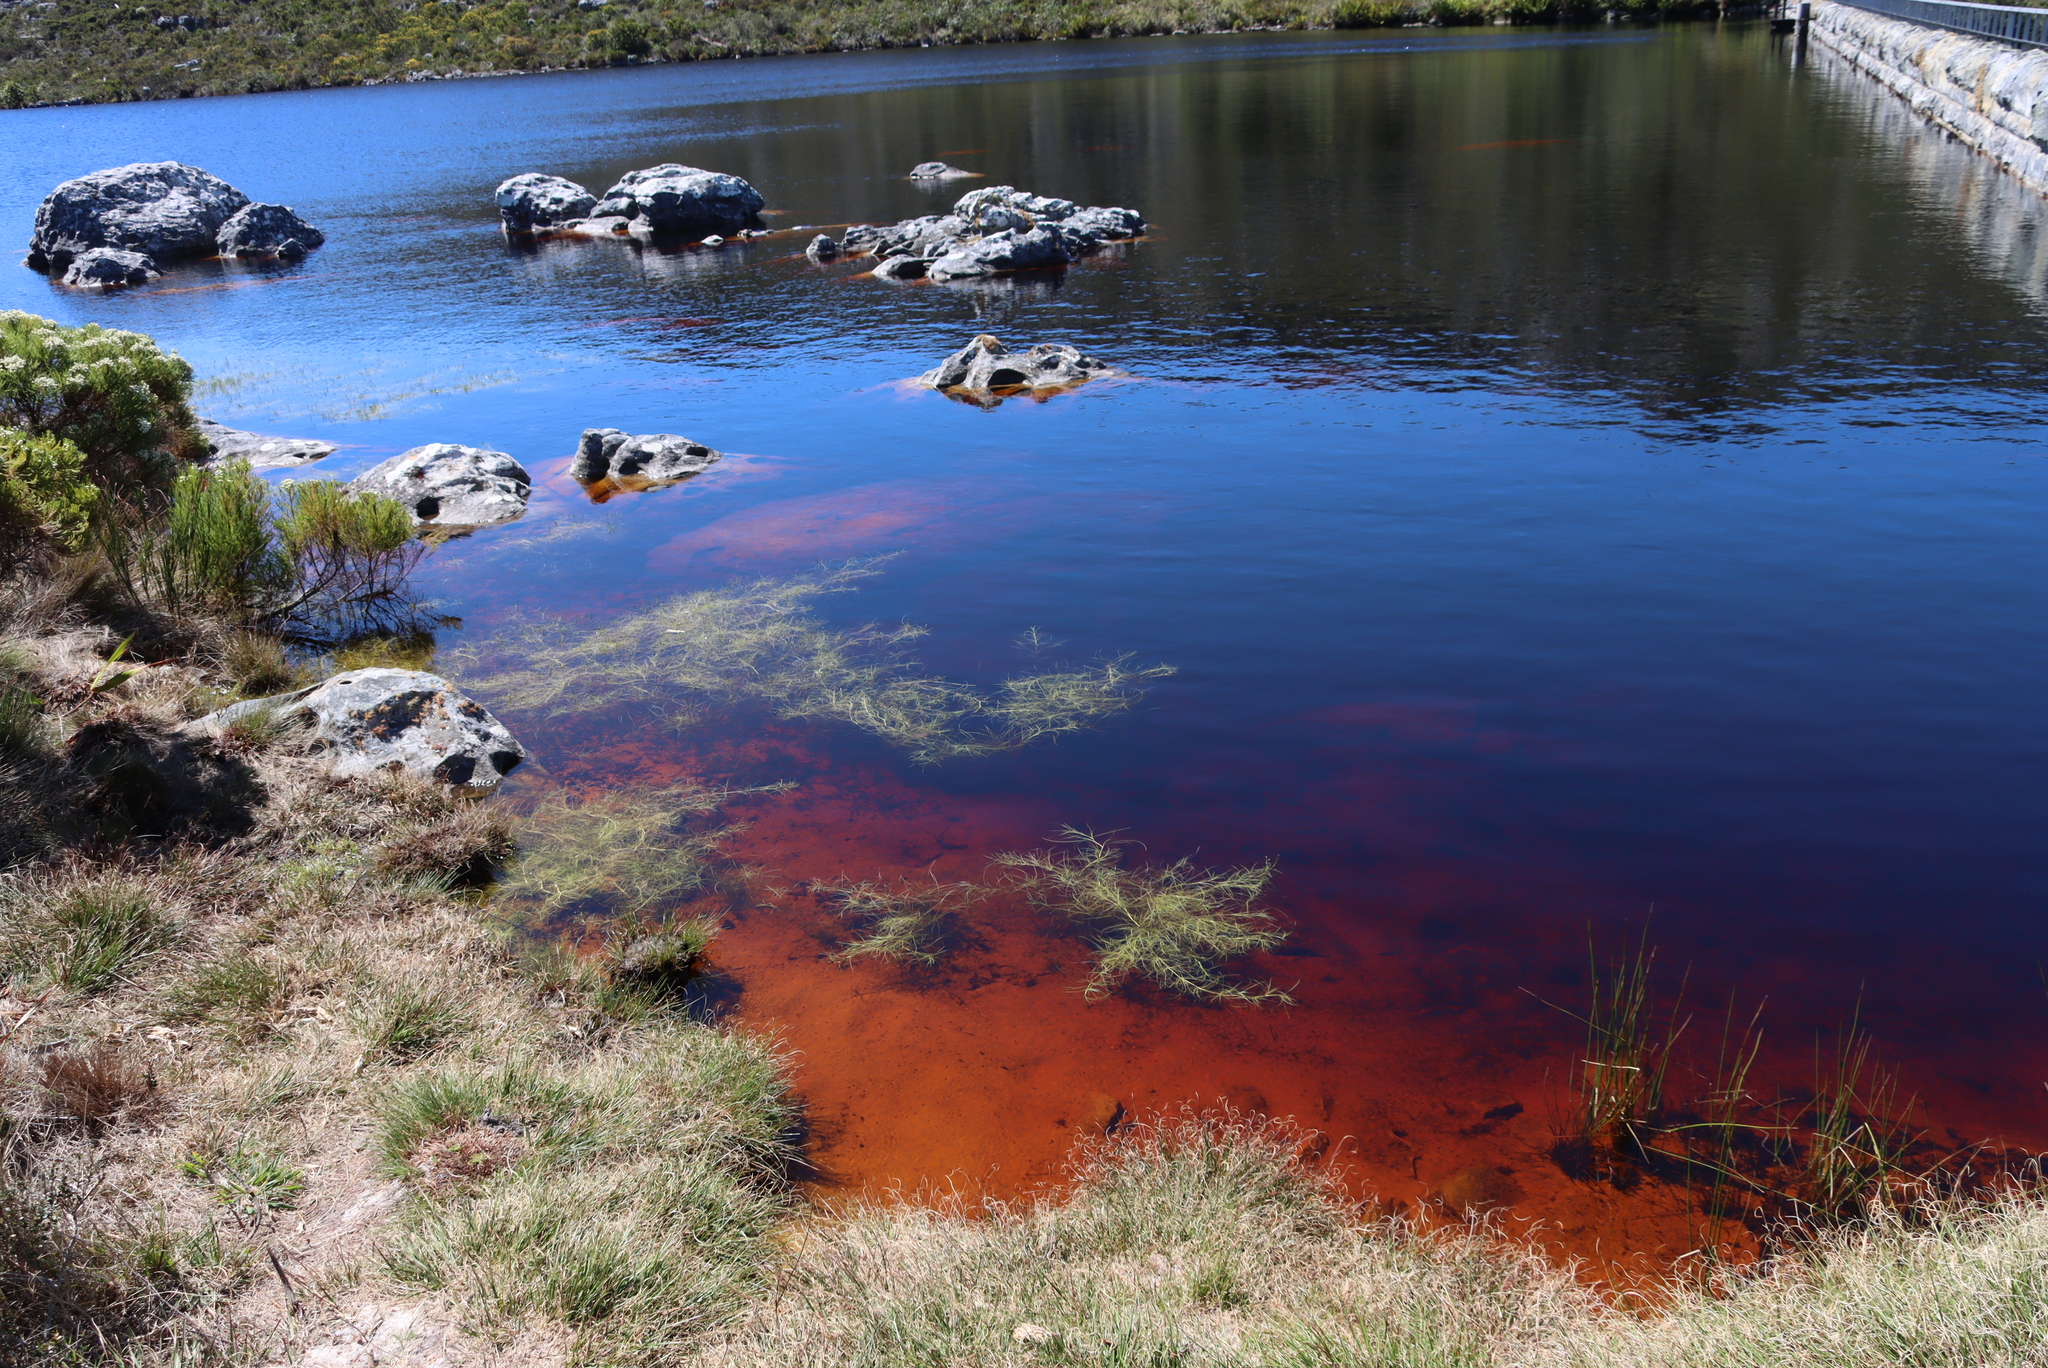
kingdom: Plantae
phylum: Tracheophyta
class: Liliopsida
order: Poales
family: Cyperaceae
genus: Isolepis
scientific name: Isolepis fluitans
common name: Floating club-rush
